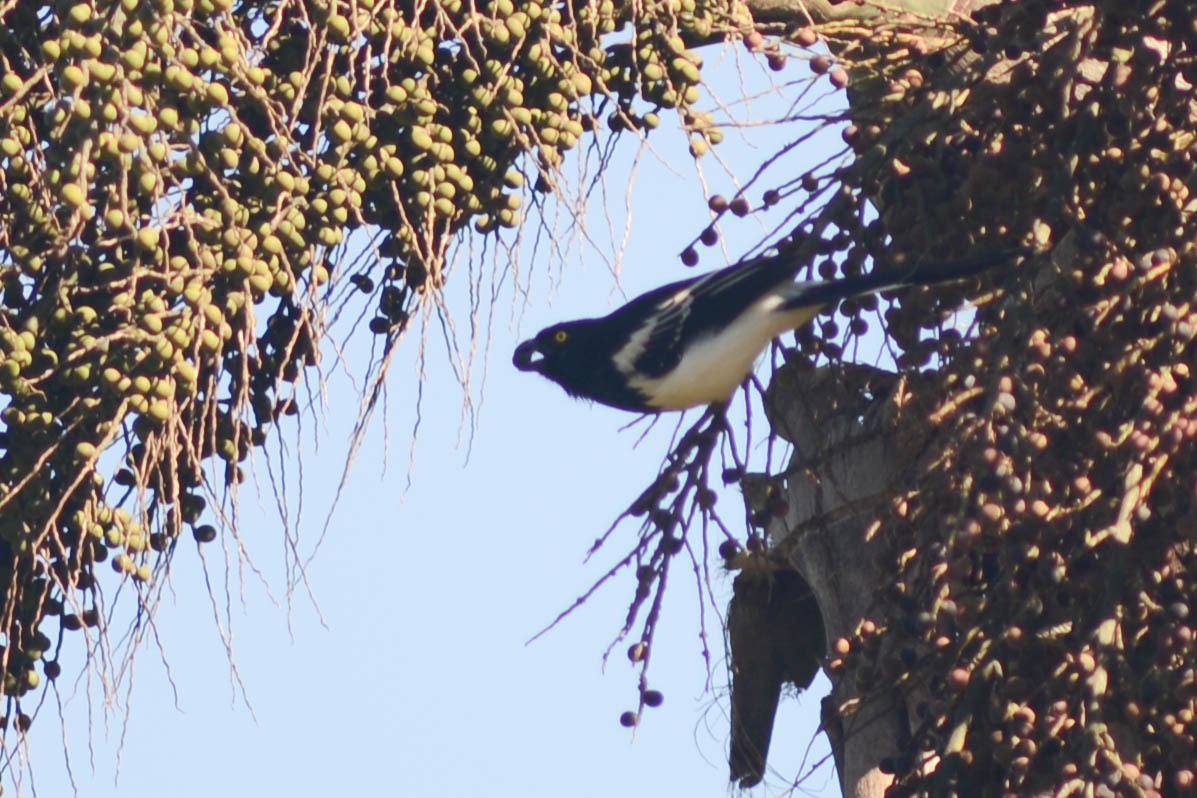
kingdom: Animalia
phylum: Chordata
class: Aves
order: Passeriformes
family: Thraupidae
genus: Cissopis
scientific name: Cissopis leverianus
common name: Magpie tanager
